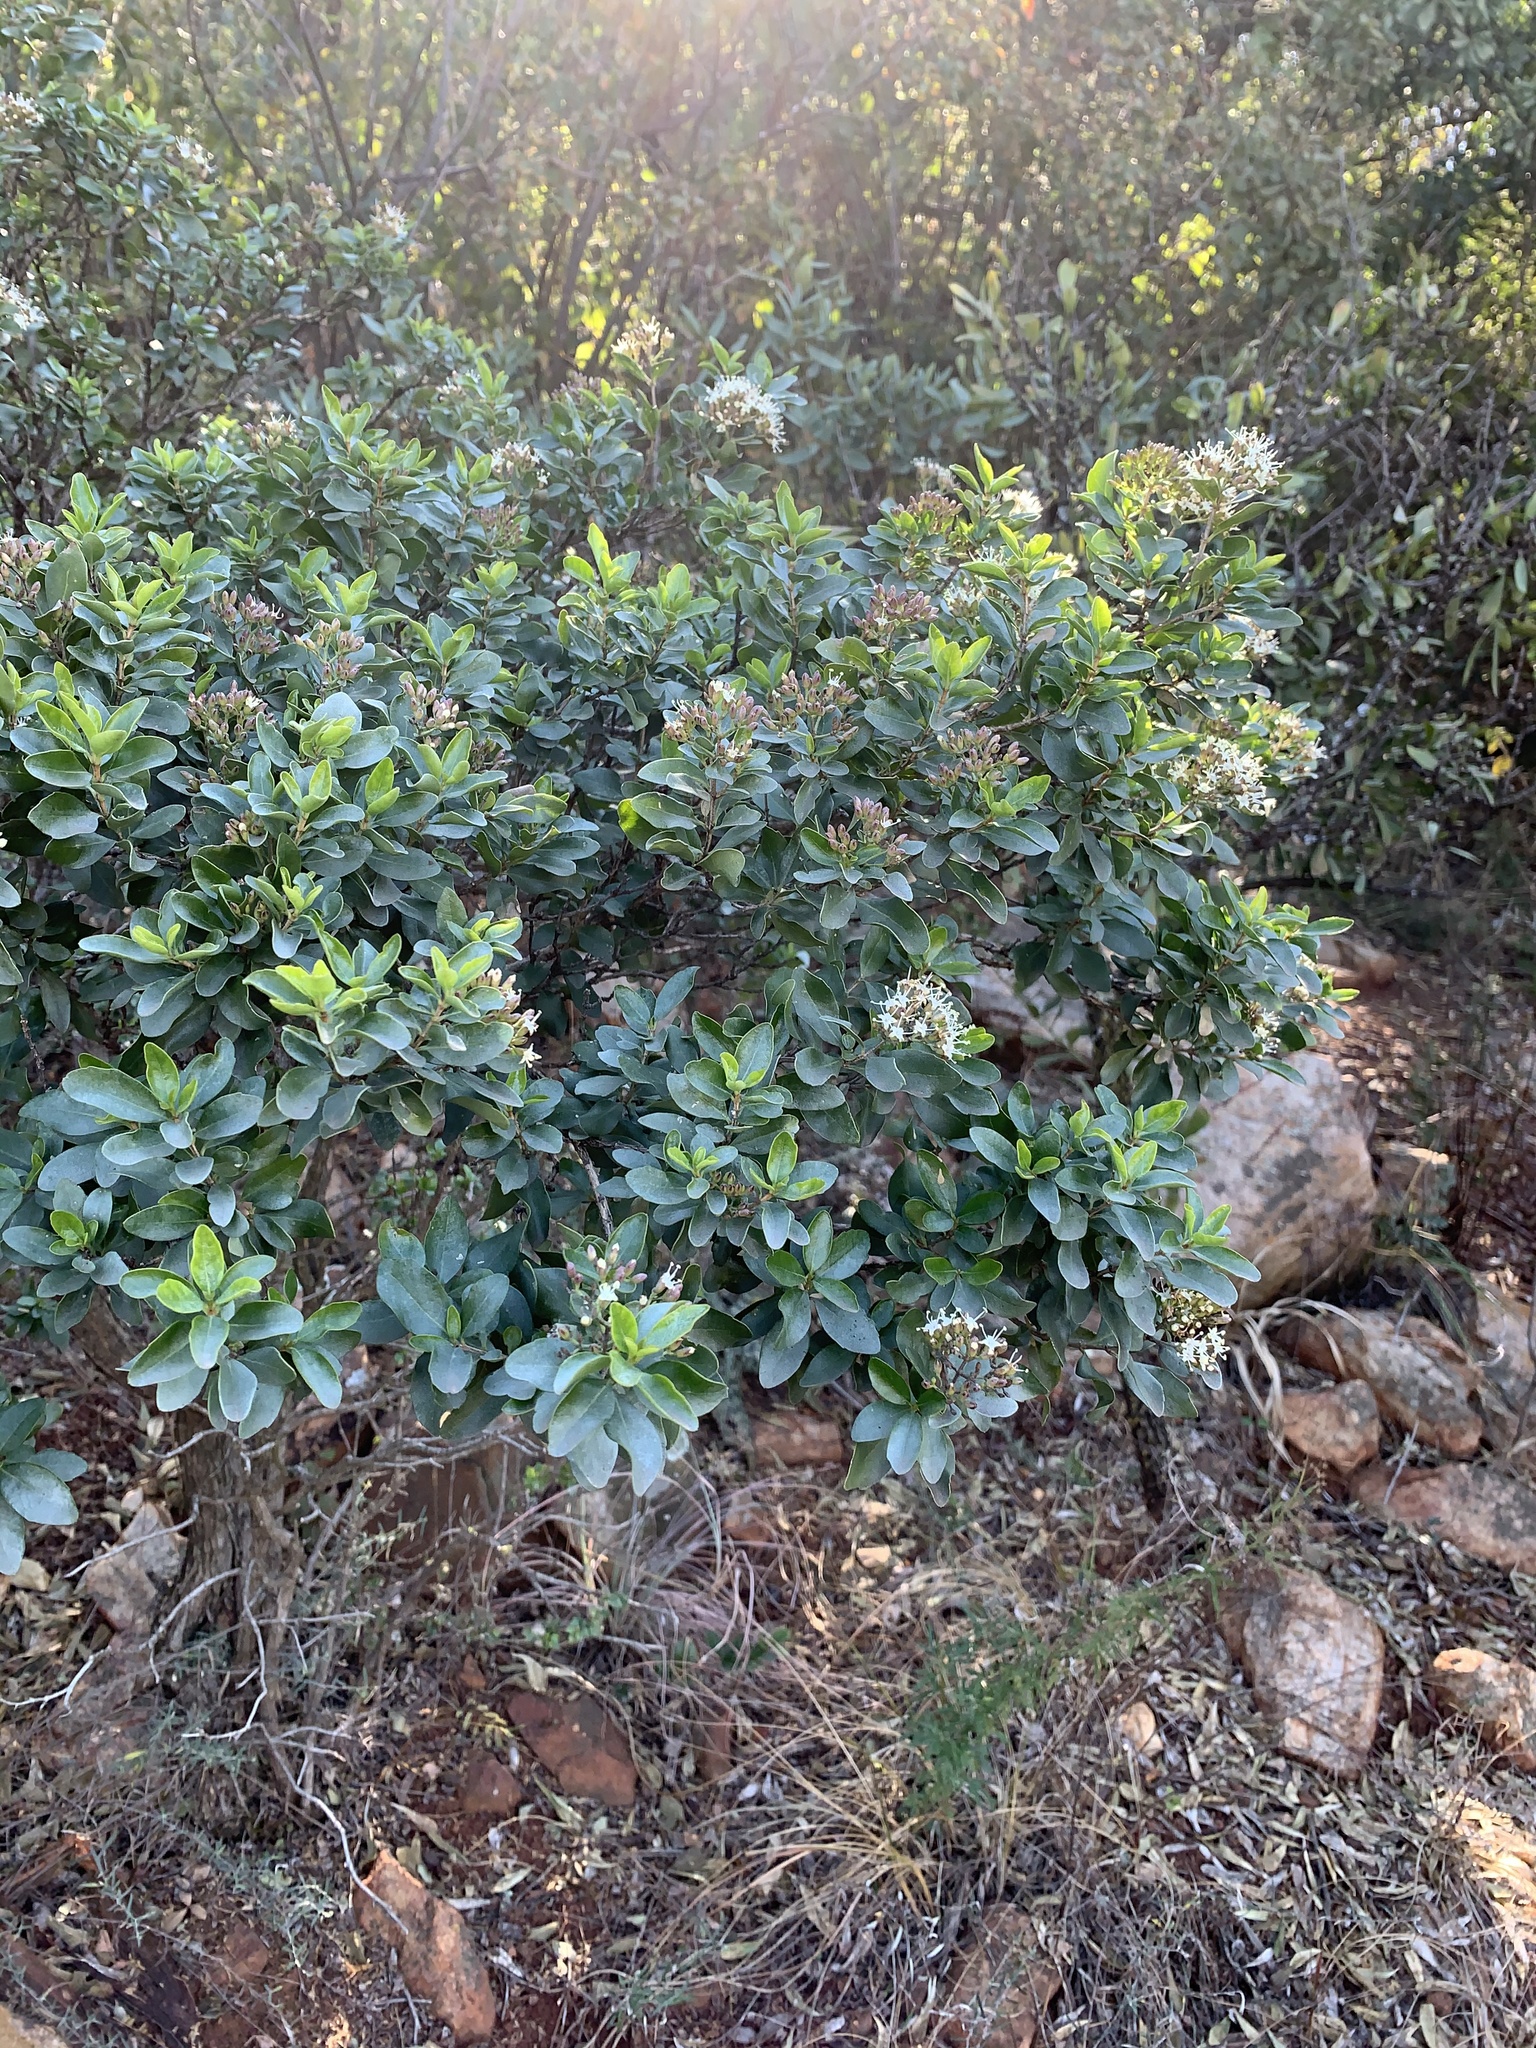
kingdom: Plantae
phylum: Tracheophyta
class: Magnoliopsida
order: Lamiales
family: Stilbaceae
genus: Nuxia
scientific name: Nuxia congesta
